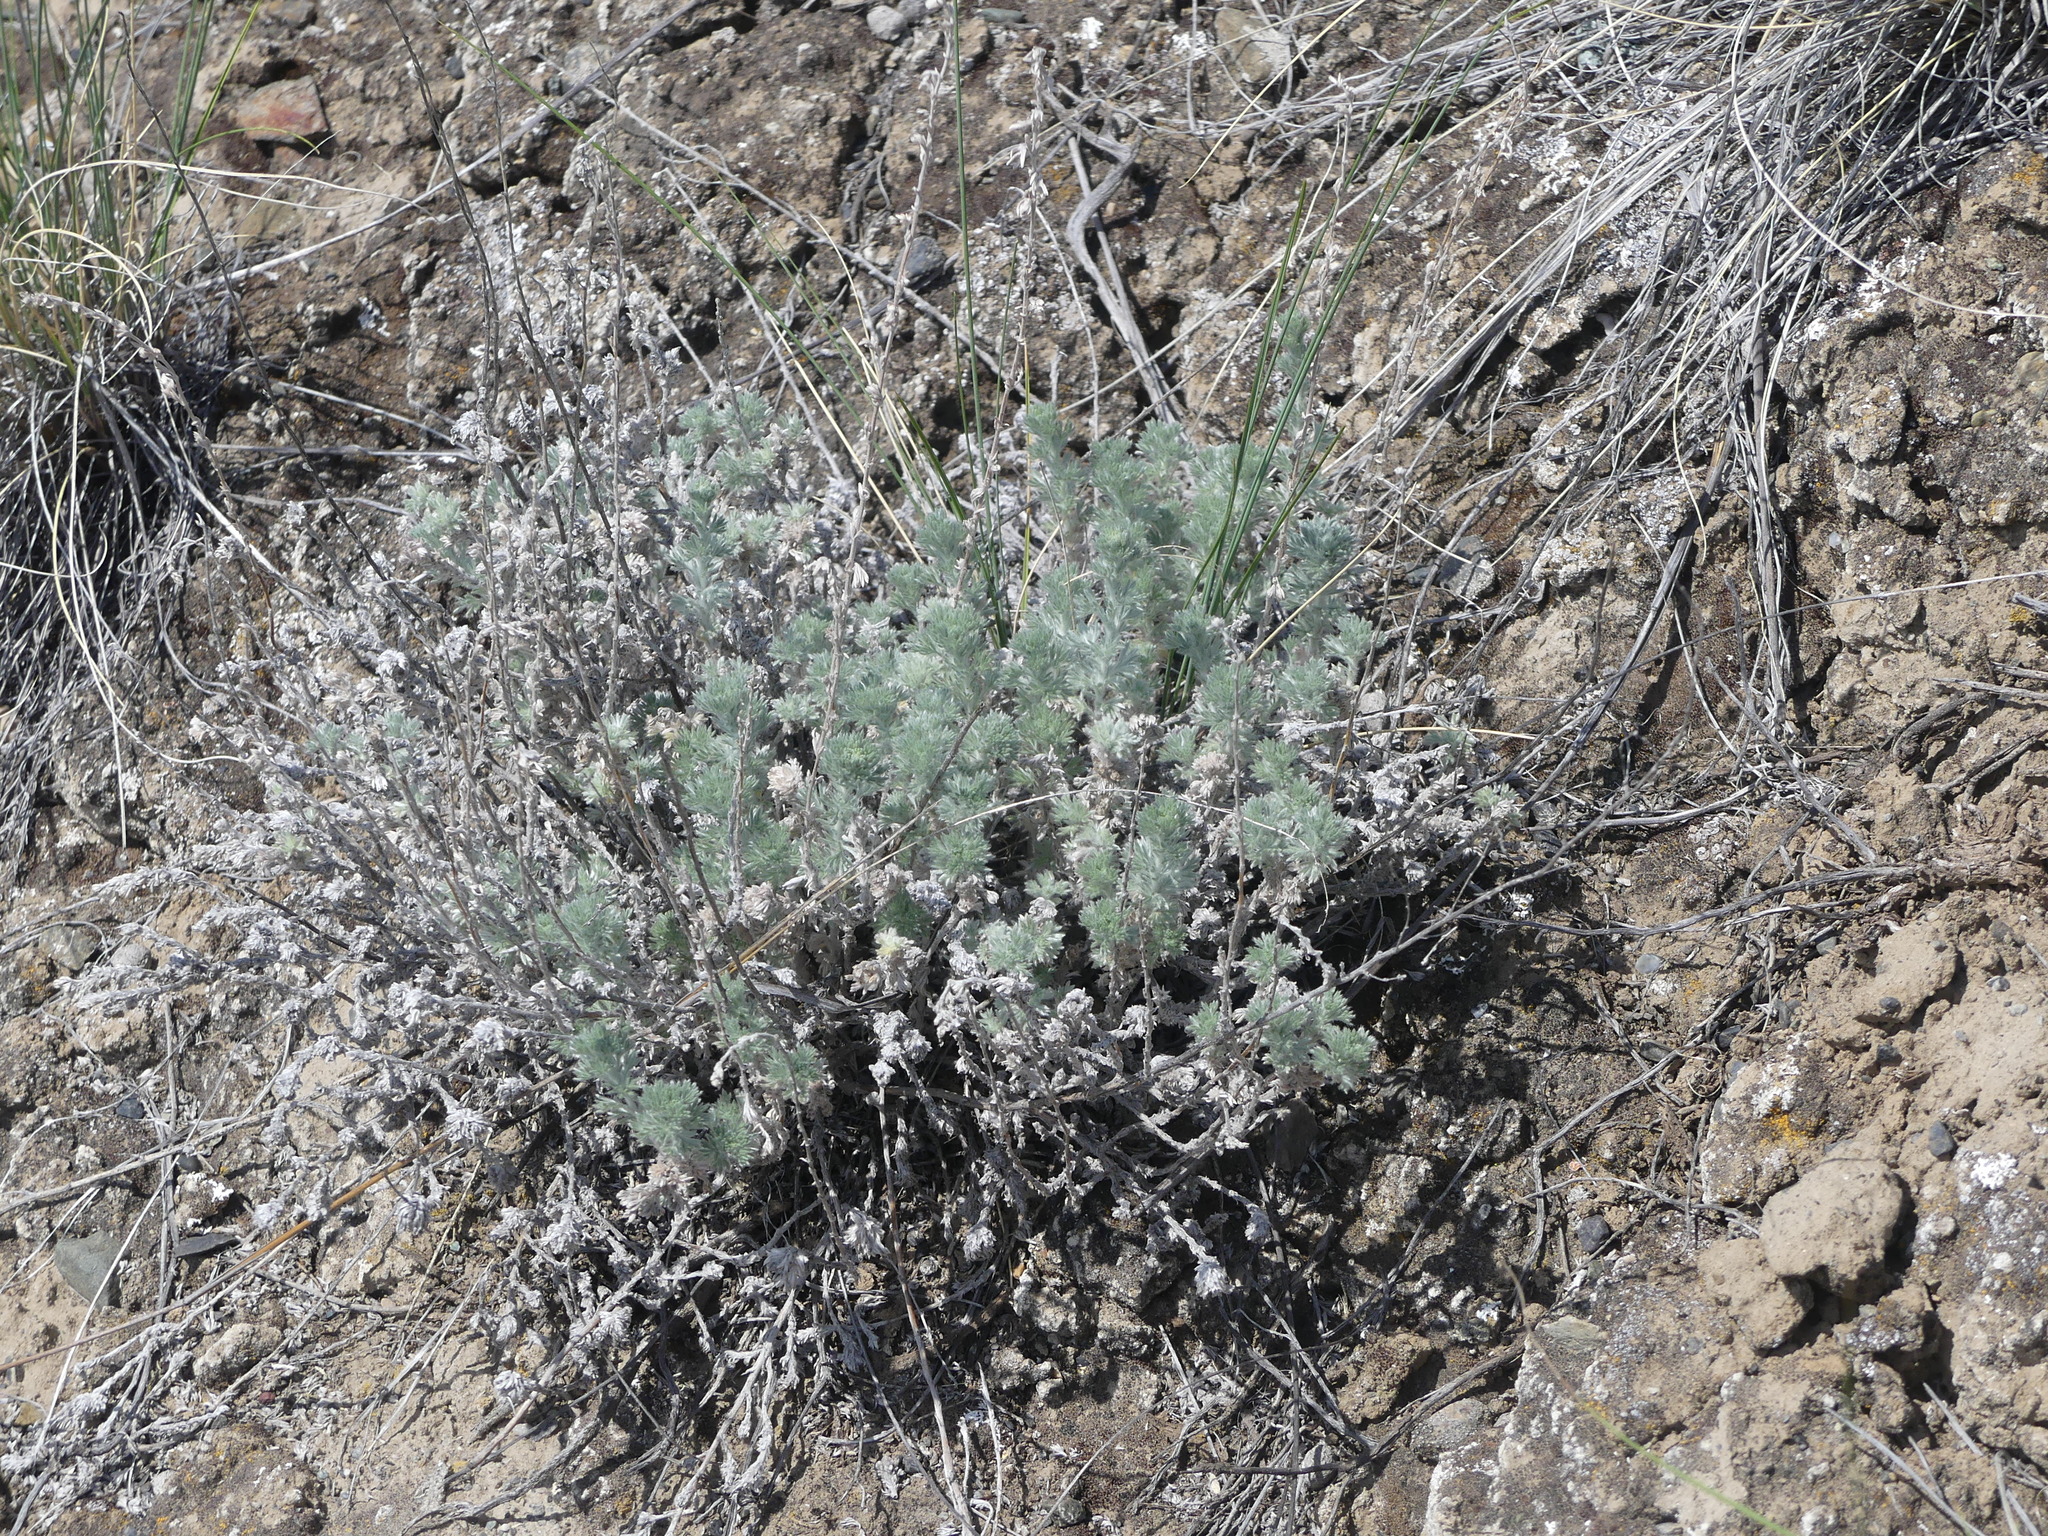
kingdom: Plantae
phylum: Tracheophyta
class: Magnoliopsida
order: Asterales
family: Asteraceae
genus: Artemisia
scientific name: Artemisia frigida
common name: Prairie sagewort
